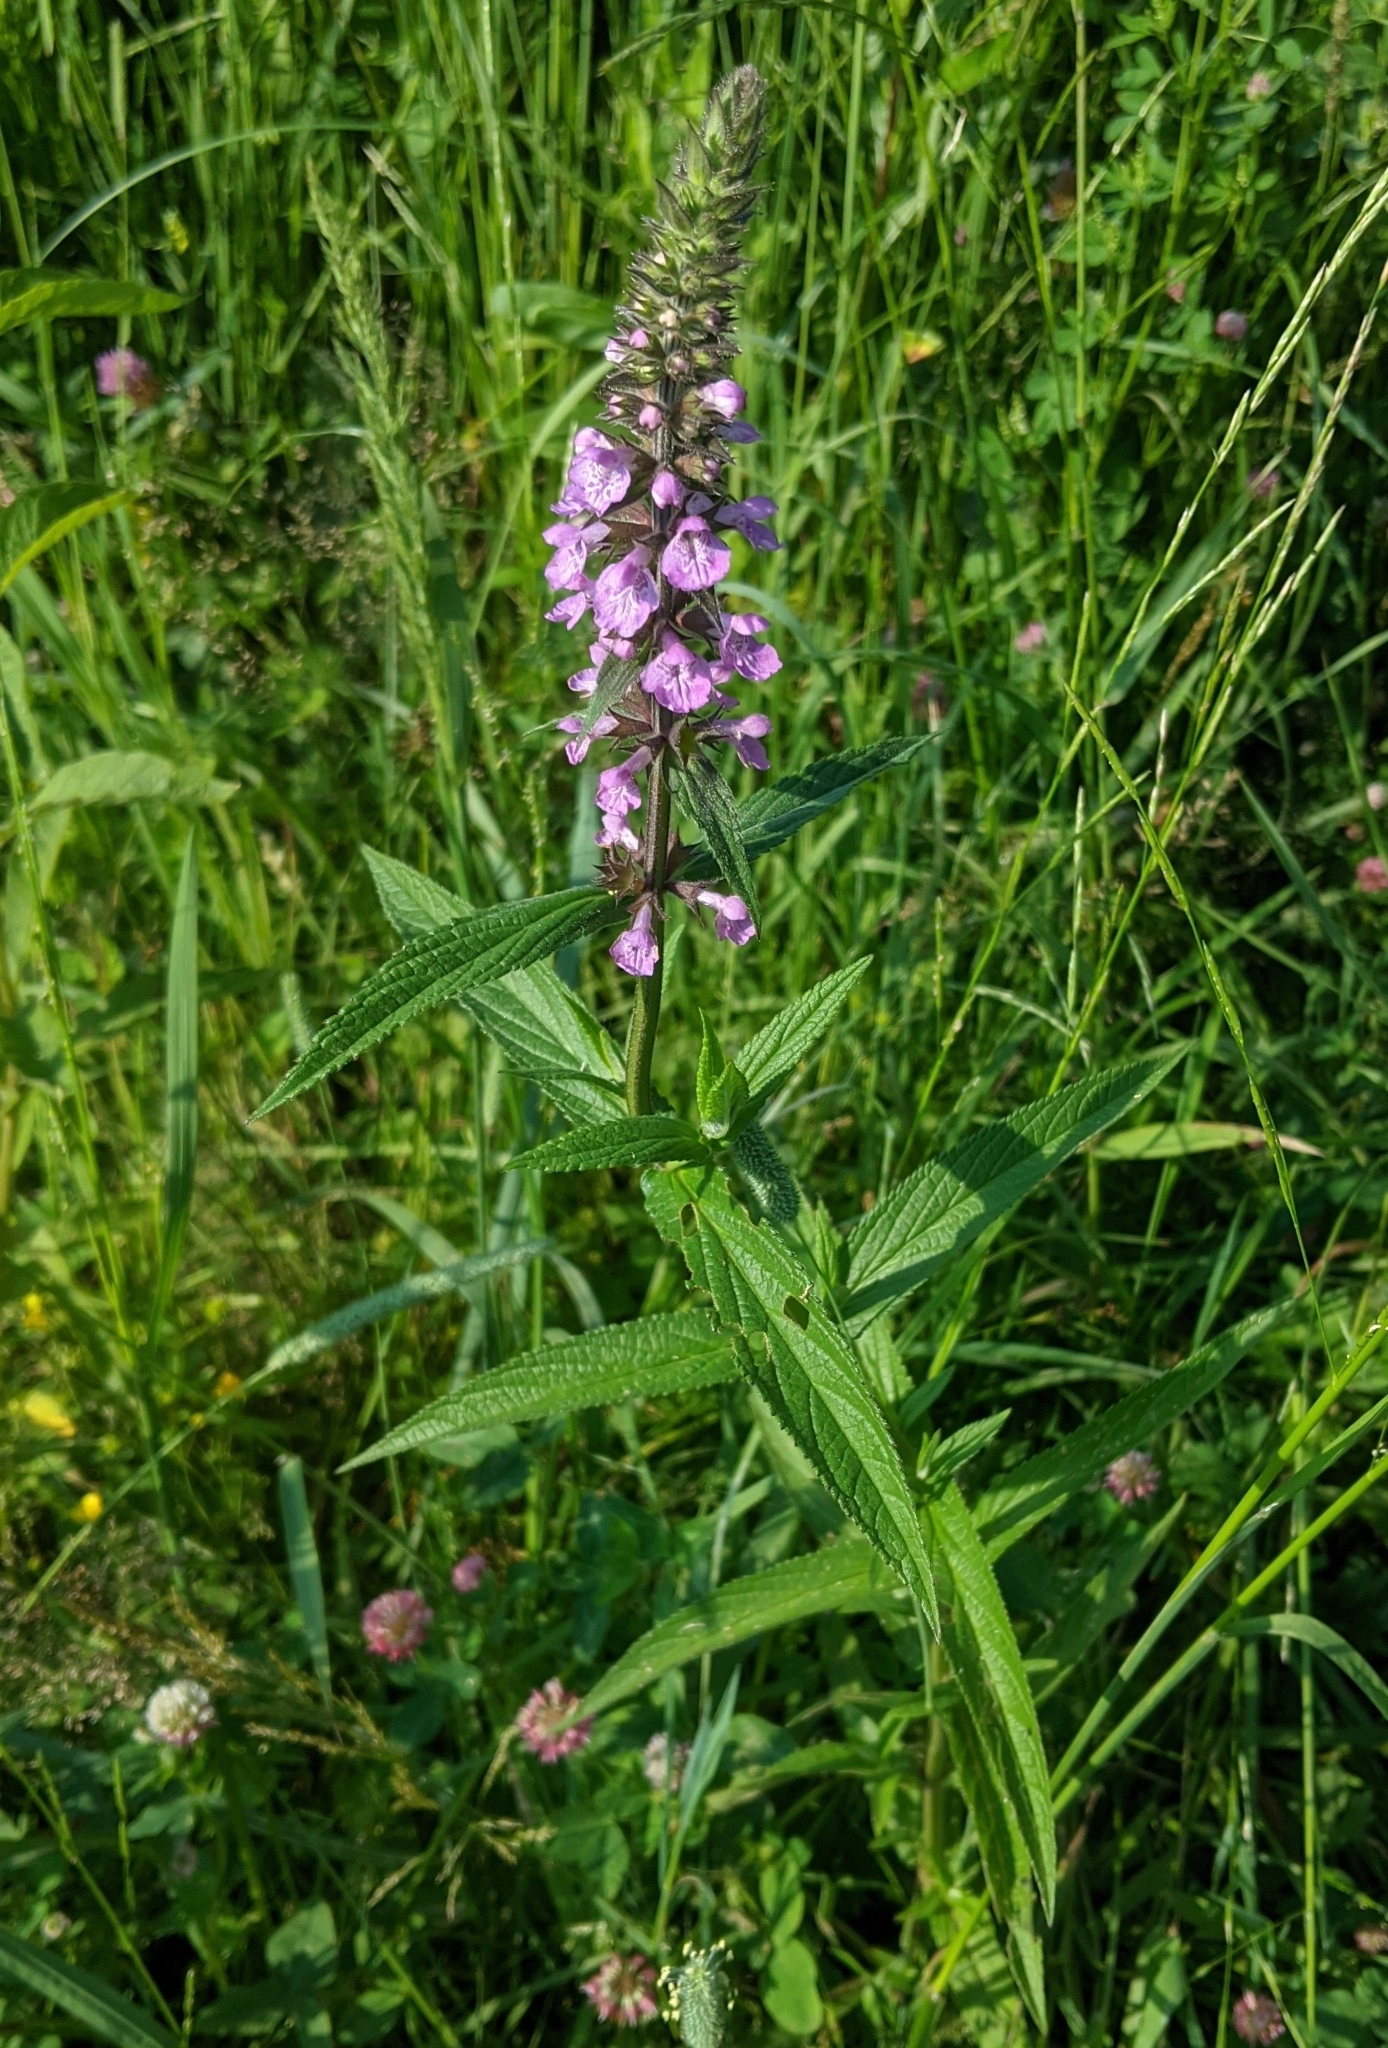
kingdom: Plantae
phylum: Tracheophyta
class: Magnoliopsida
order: Lamiales
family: Lamiaceae
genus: Stachys
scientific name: Stachys palustris
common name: Marsh woundwort
